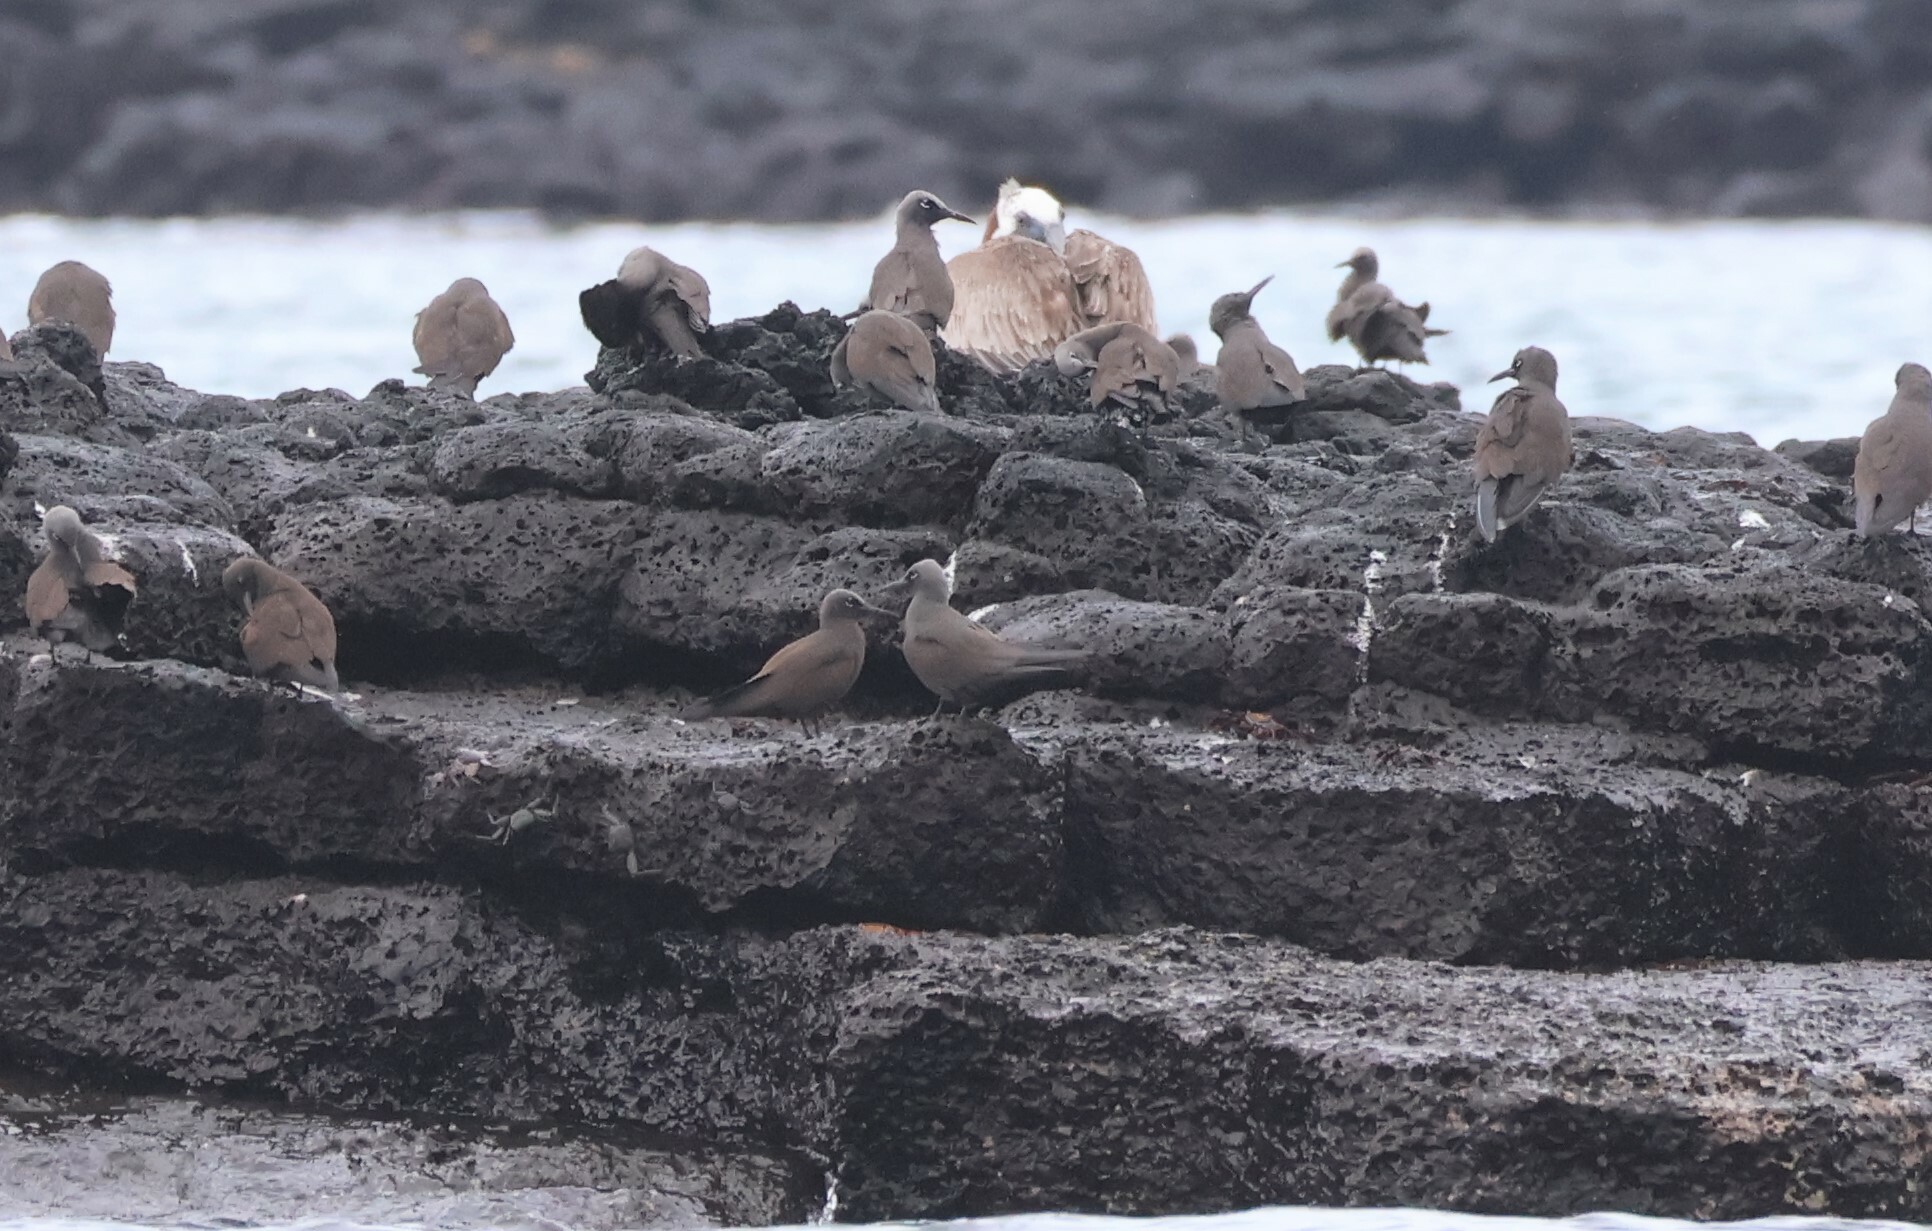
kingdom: Animalia
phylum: Chordata
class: Aves
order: Charadriiformes
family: Laridae
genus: Anous
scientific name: Anous stolidus
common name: Brown noddy
